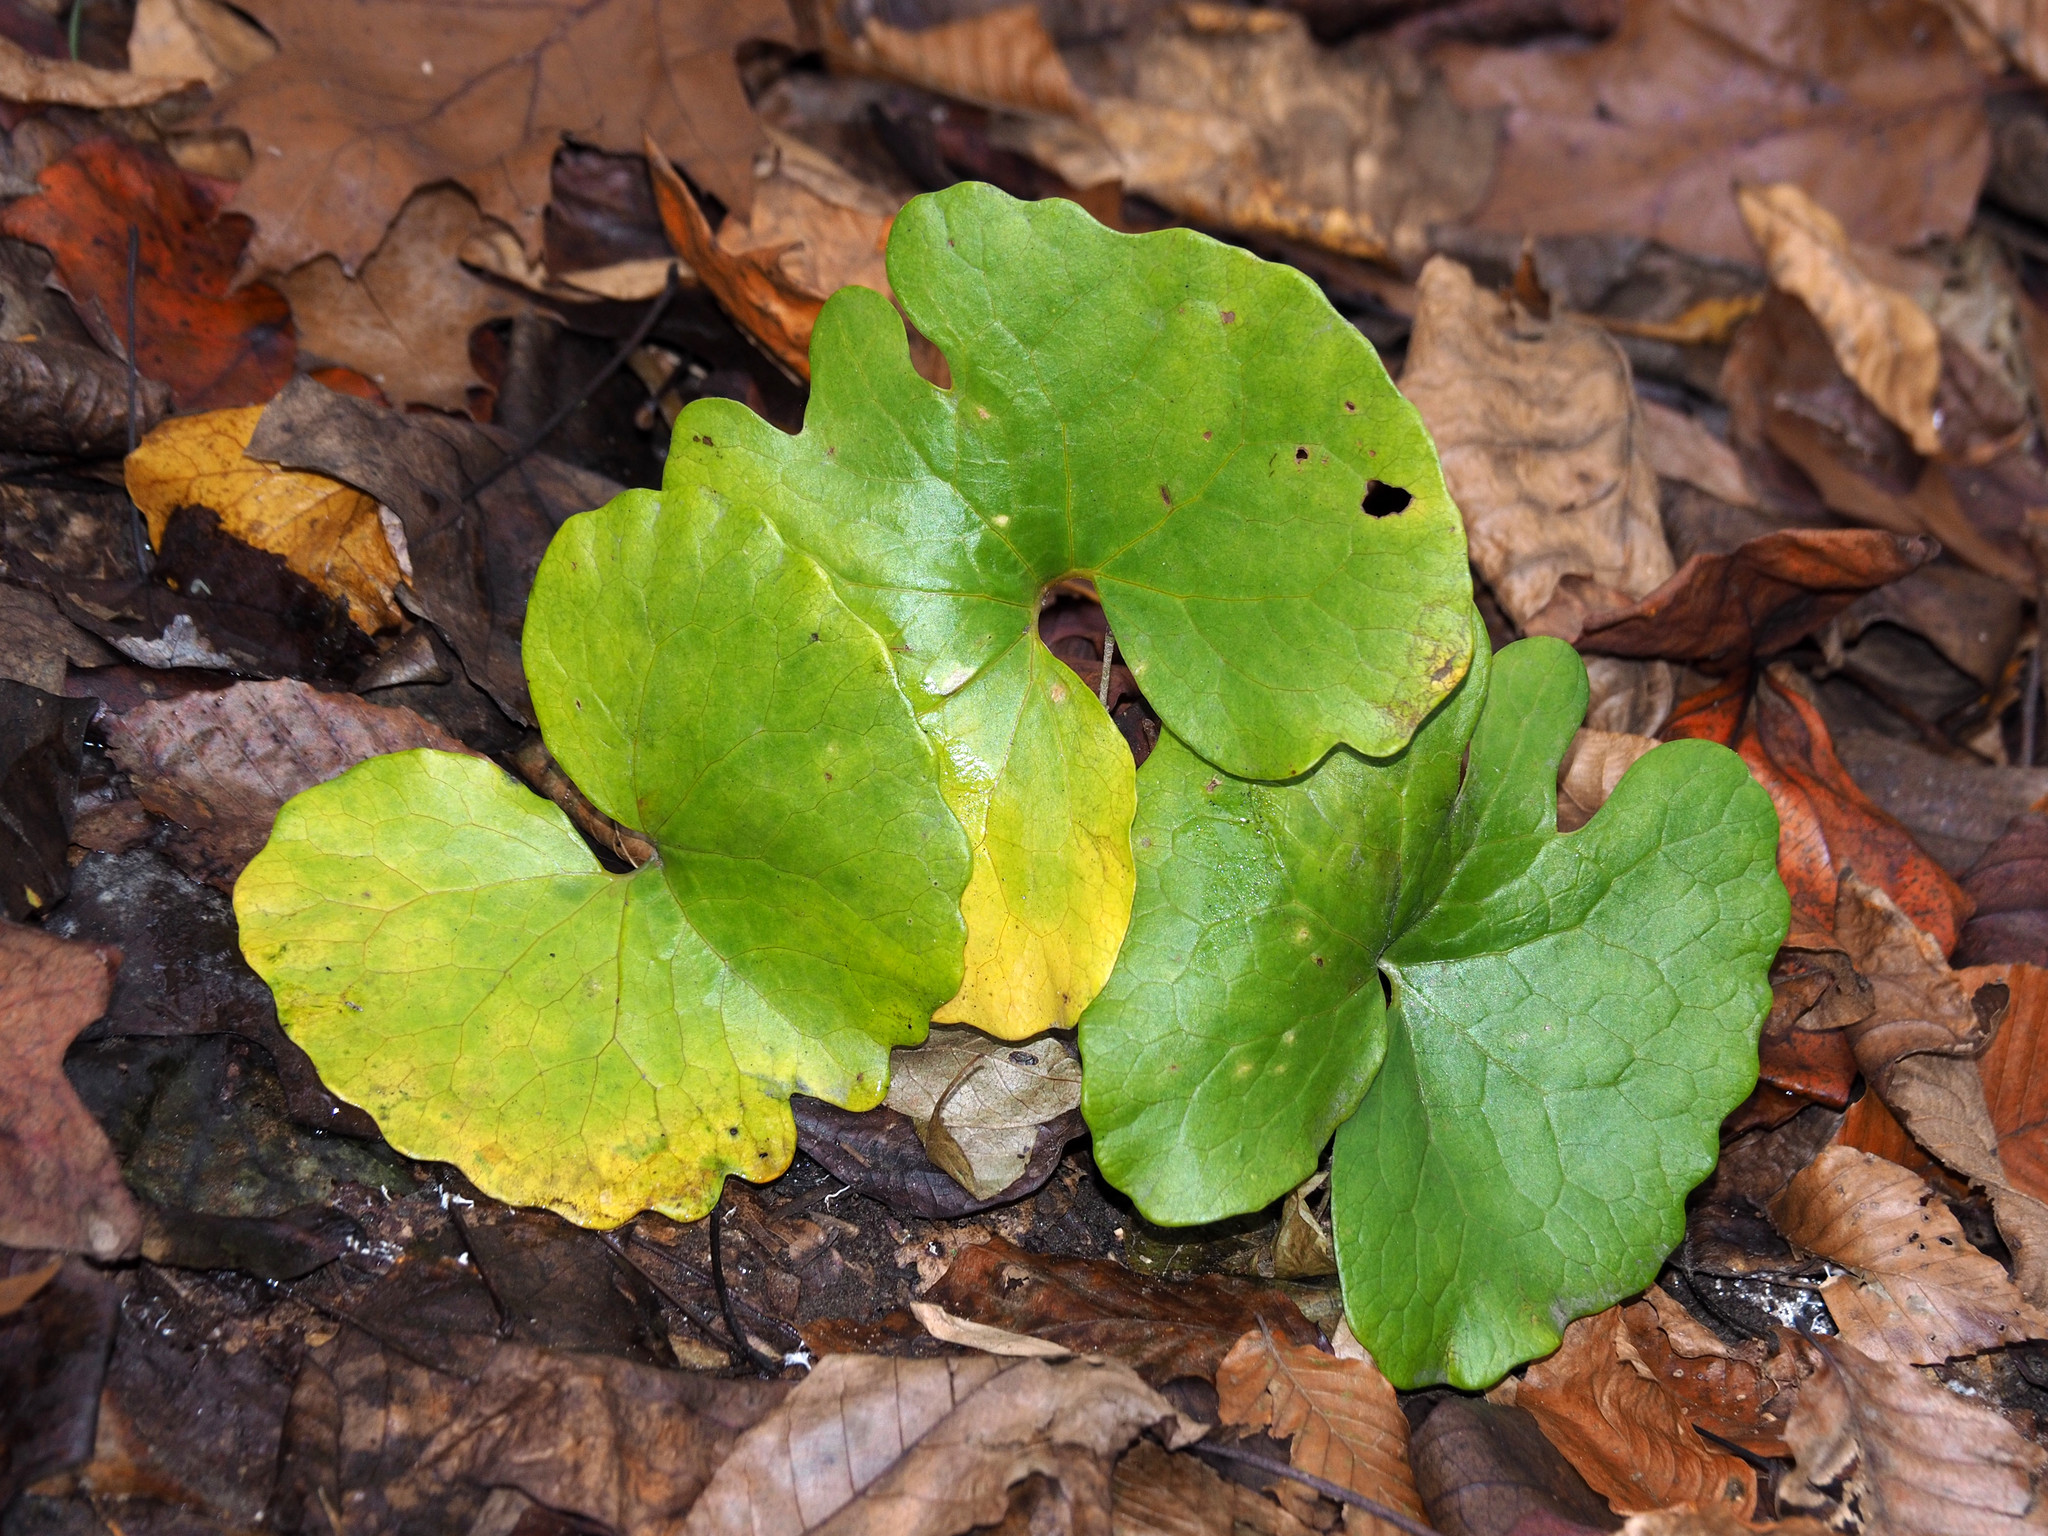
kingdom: Plantae
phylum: Tracheophyta
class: Magnoliopsida
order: Ranunculales
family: Papaveraceae
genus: Sanguinaria
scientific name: Sanguinaria canadensis
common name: Bloodroot
